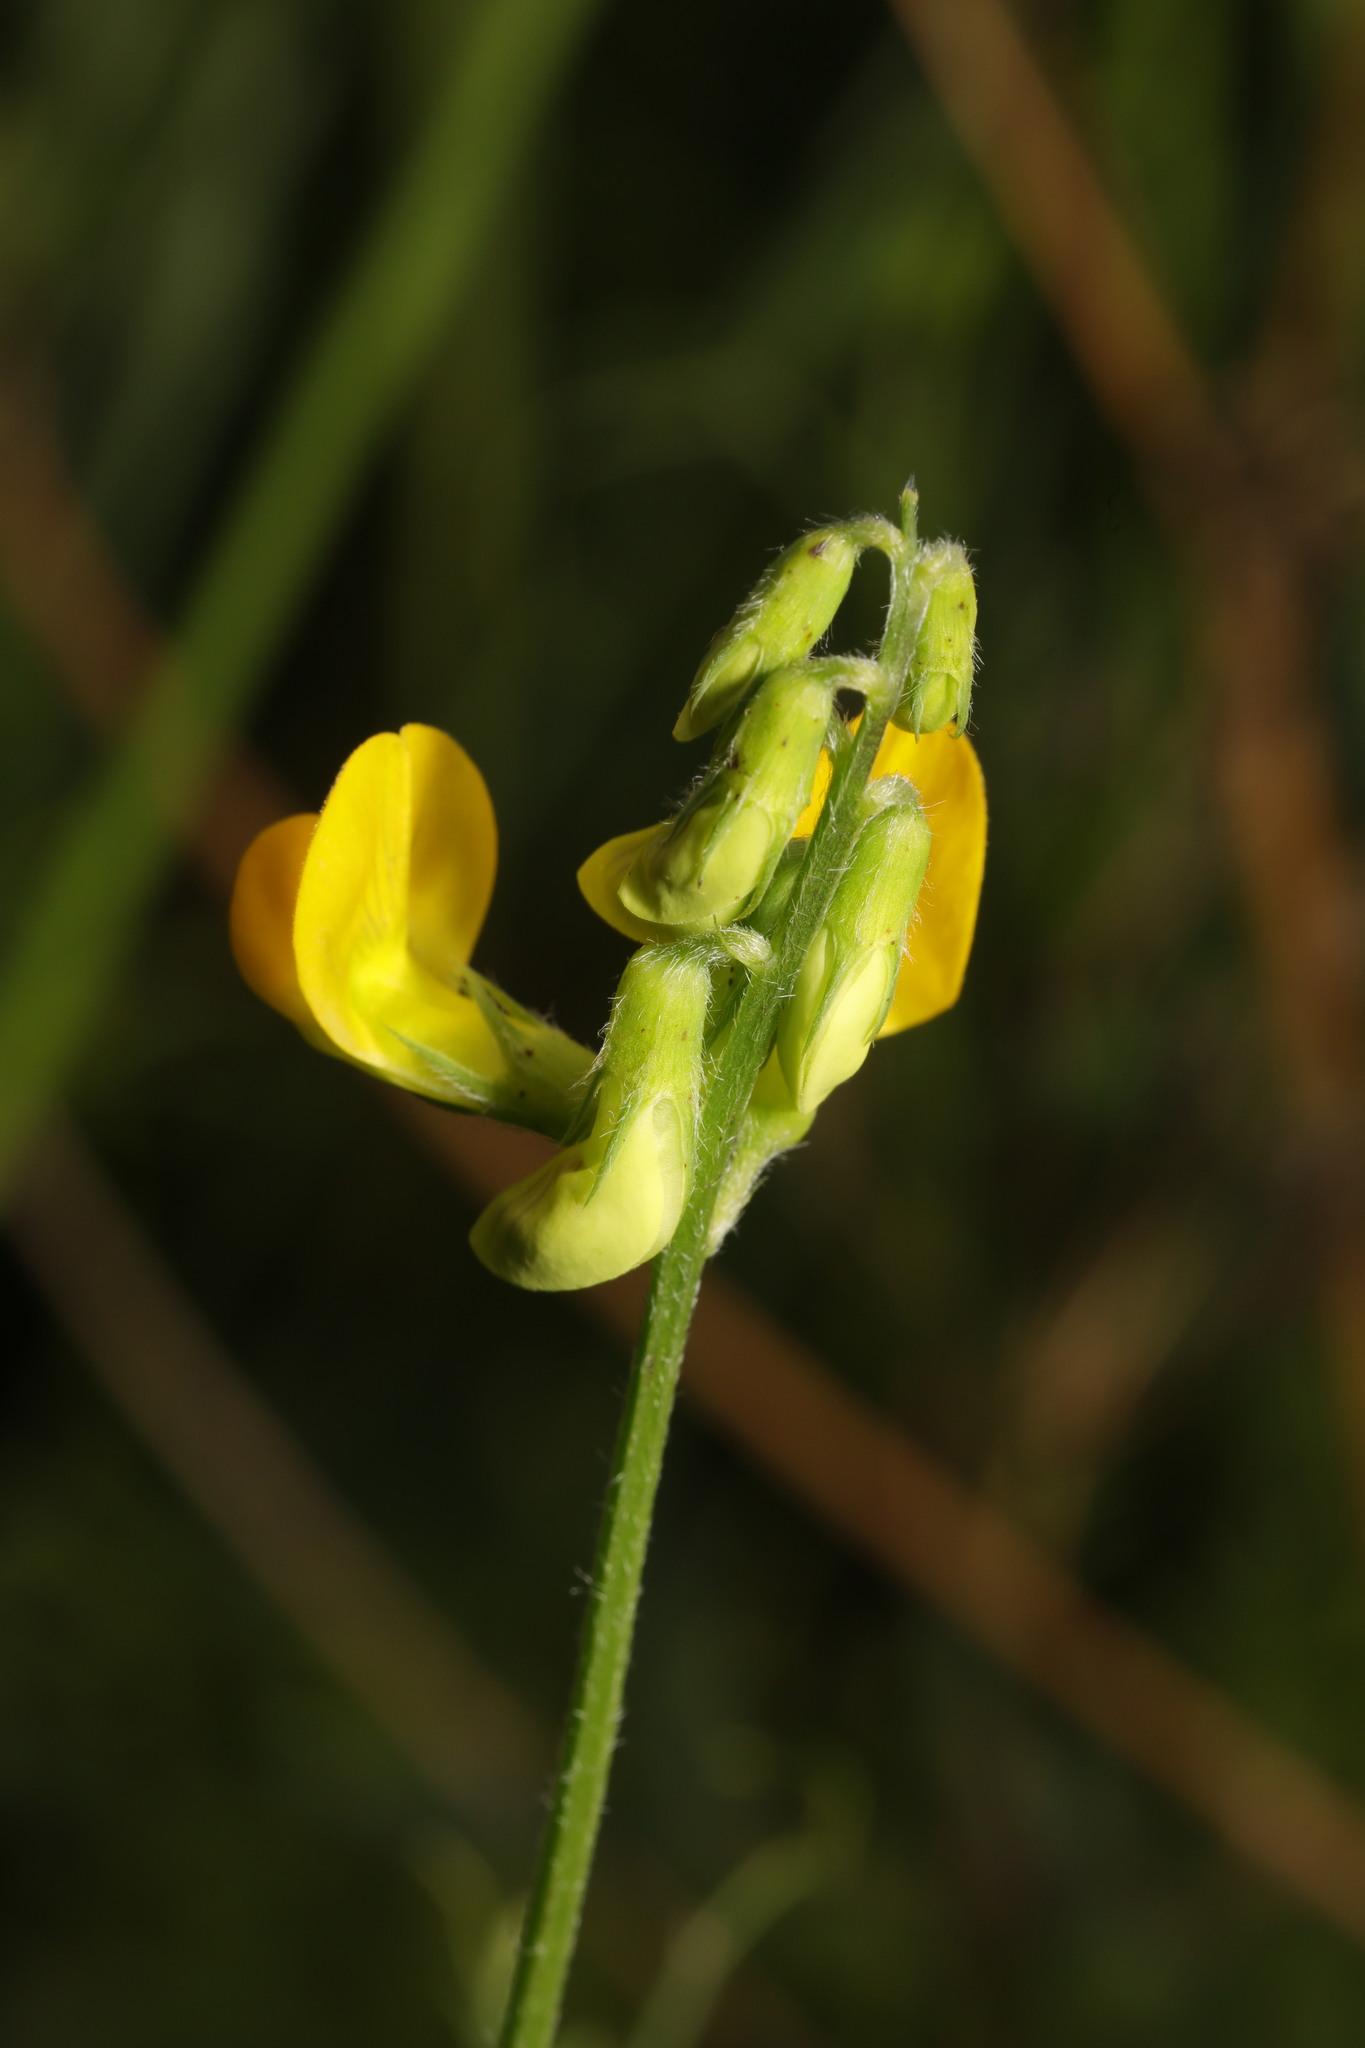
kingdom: Plantae
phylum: Tracheophyta
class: Magnoliopsida
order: Fabales
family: Fabaceae
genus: Lathyrus
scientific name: Lathyrus pratensis
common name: Meadow vetchling
